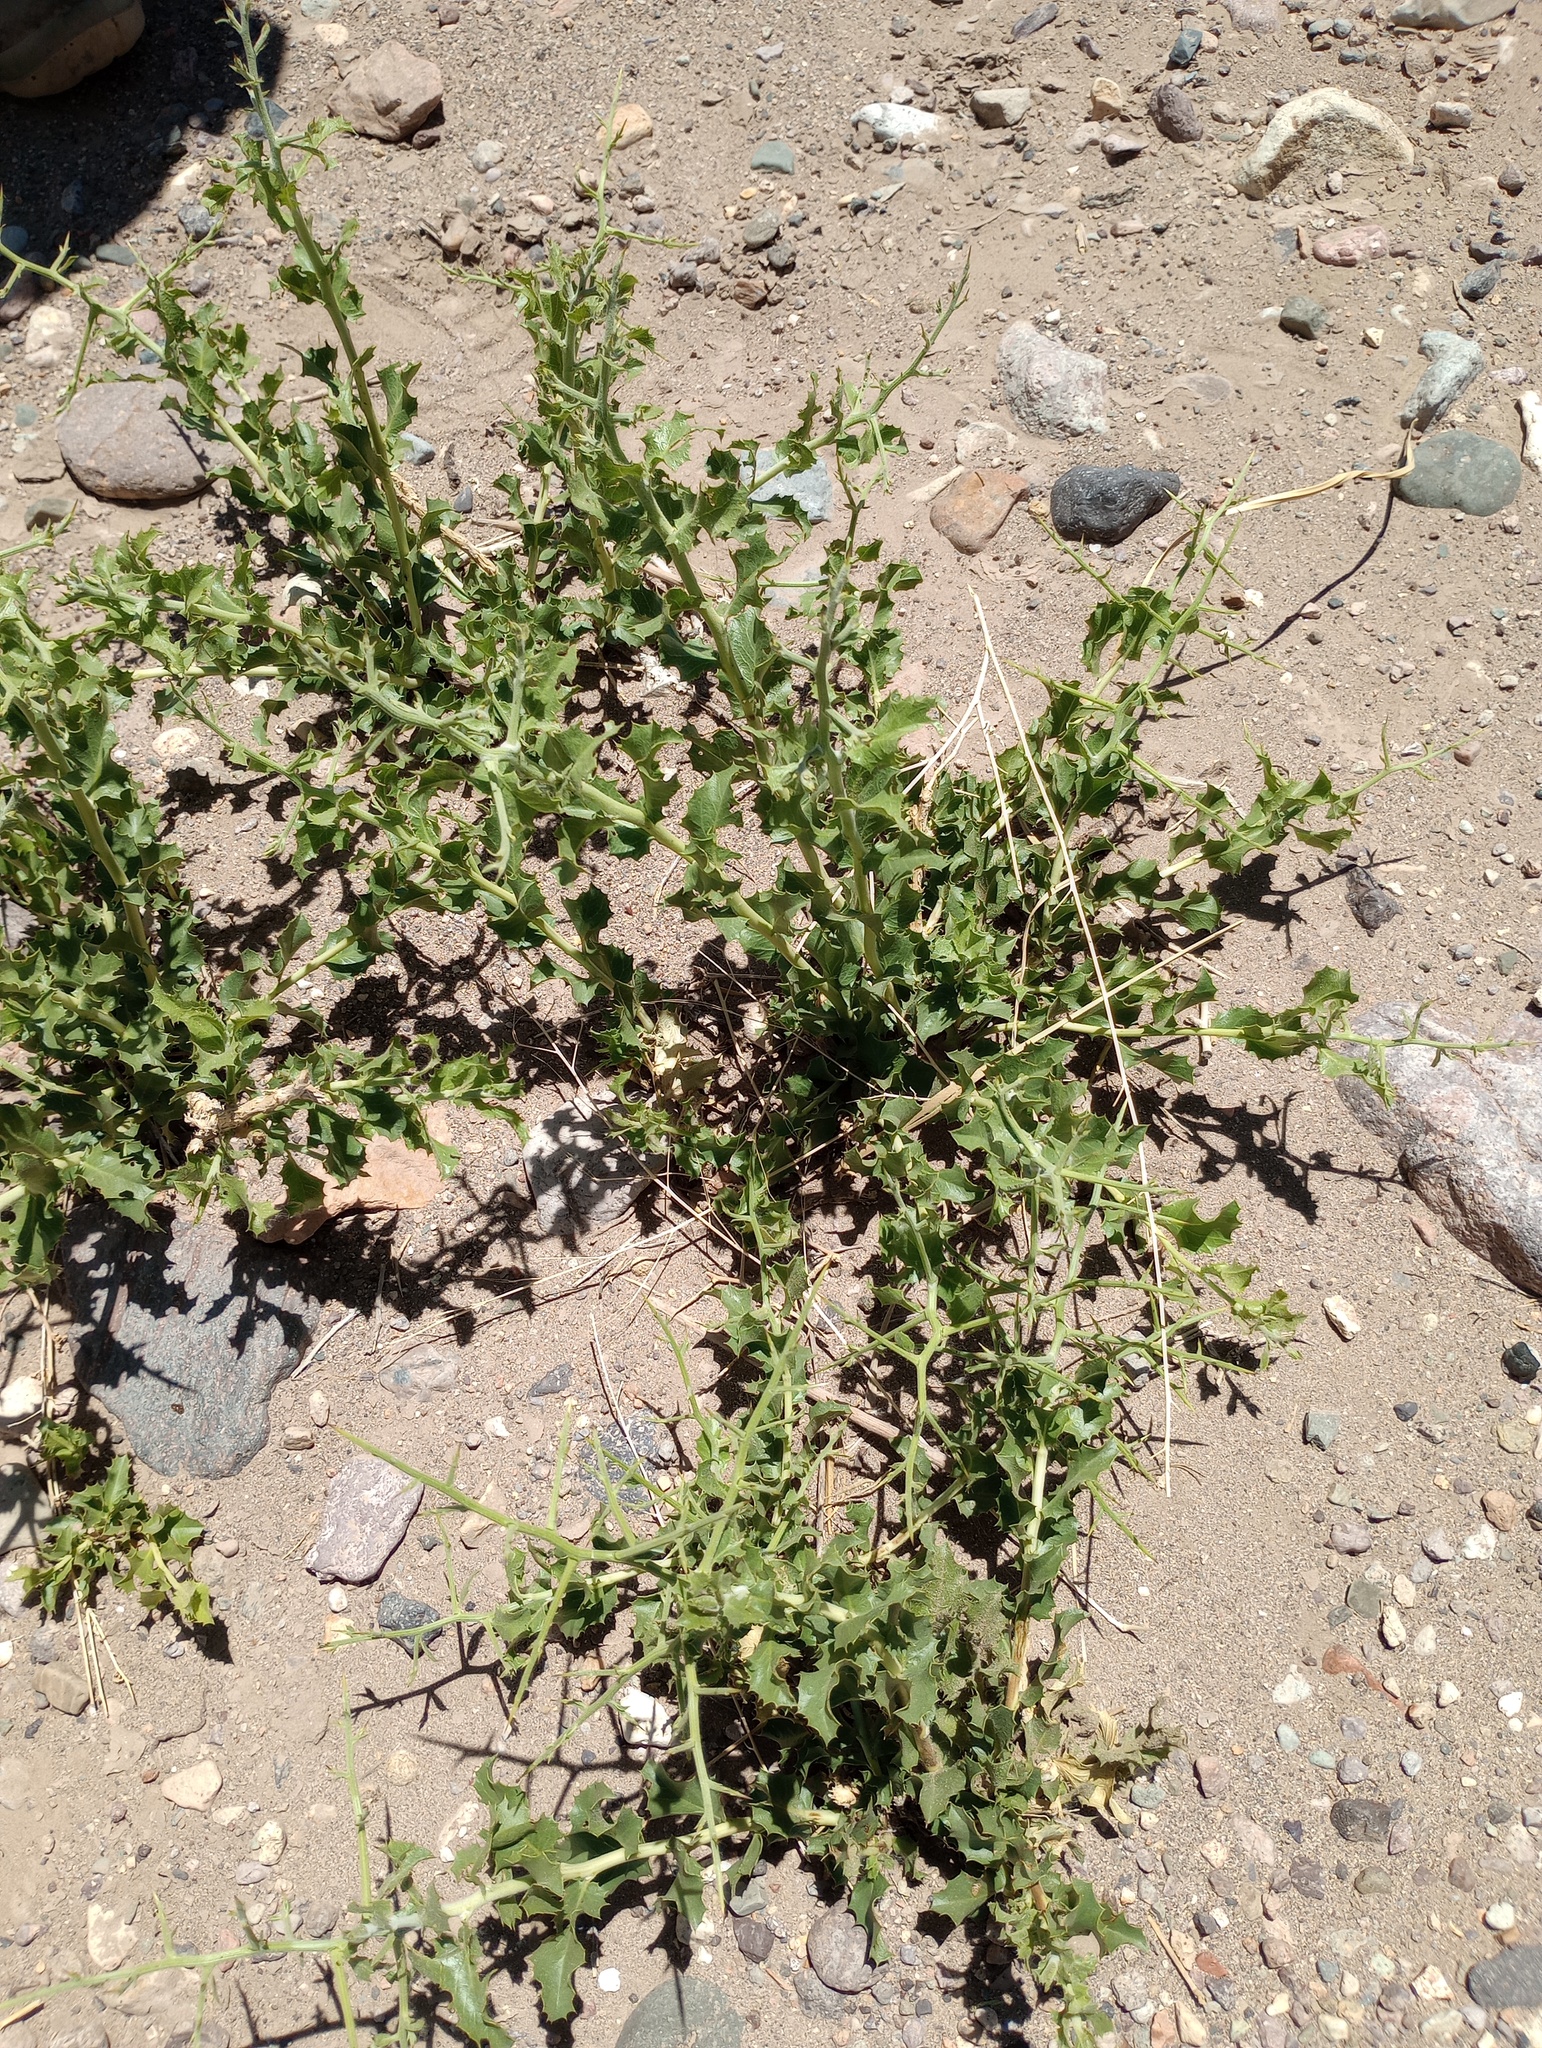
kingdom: Plantae
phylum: Tracheophyta
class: Magnoliopsida
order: Asterales
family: Asteraceae
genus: Proustia
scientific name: Proustia cuneifolia
